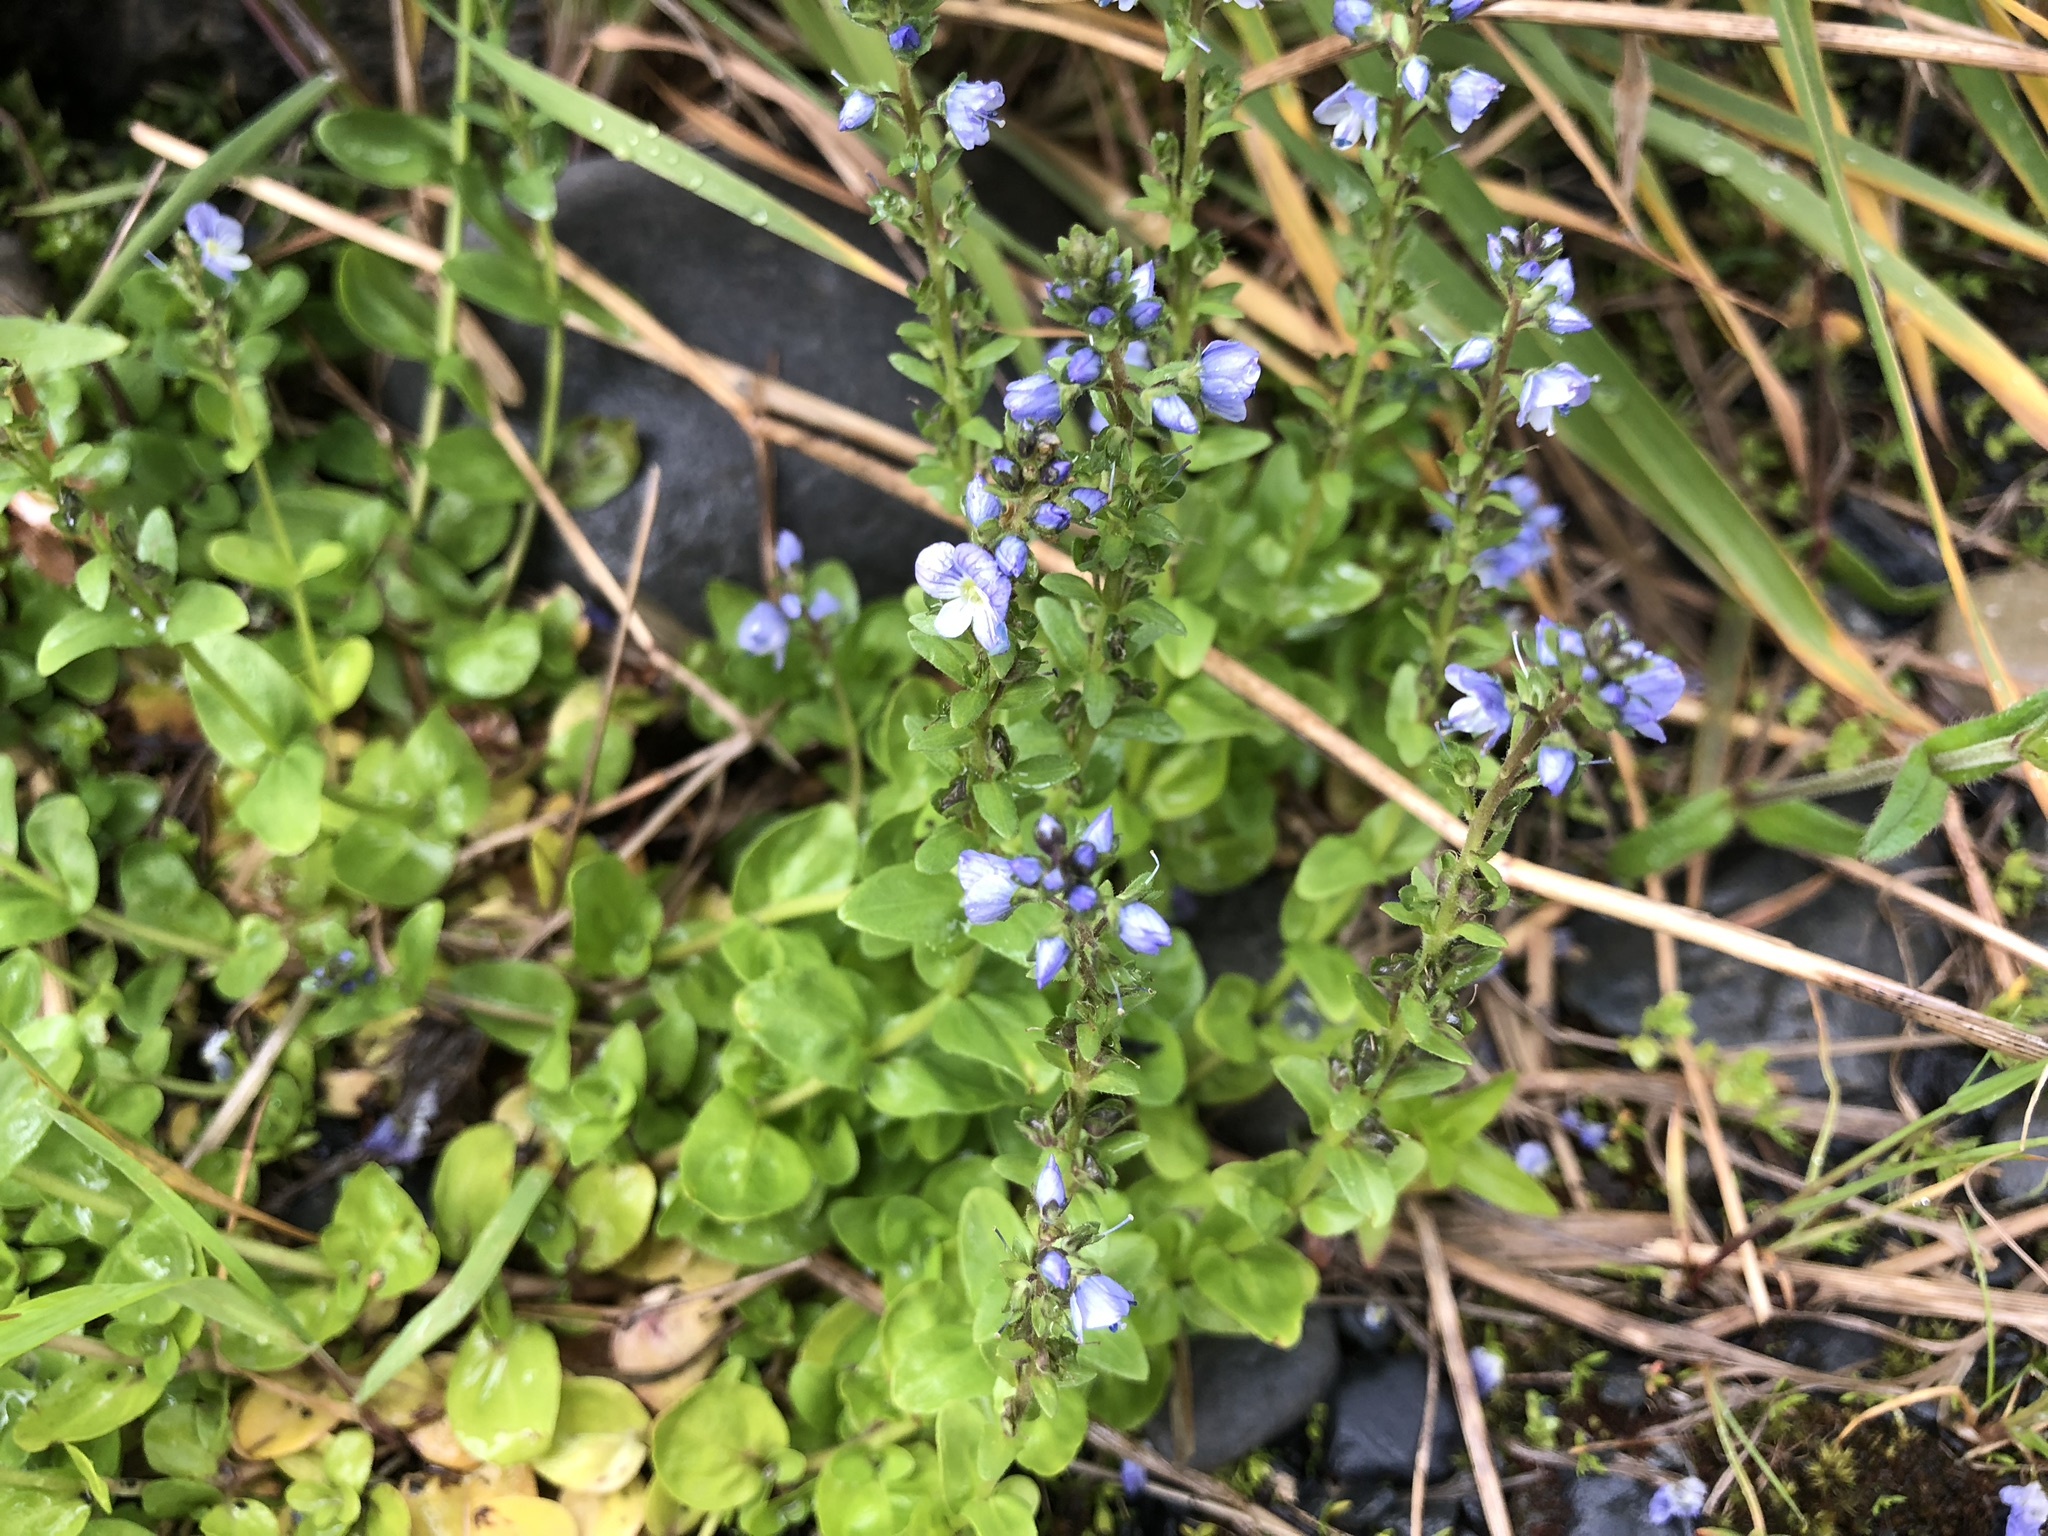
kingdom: Plantae
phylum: Tracheophyta
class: Magnoliopsida
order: Lamiales
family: Plantaginaceae
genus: Veronica
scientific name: Veronica serpyllifolia
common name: Thyme-leaved speedwell
